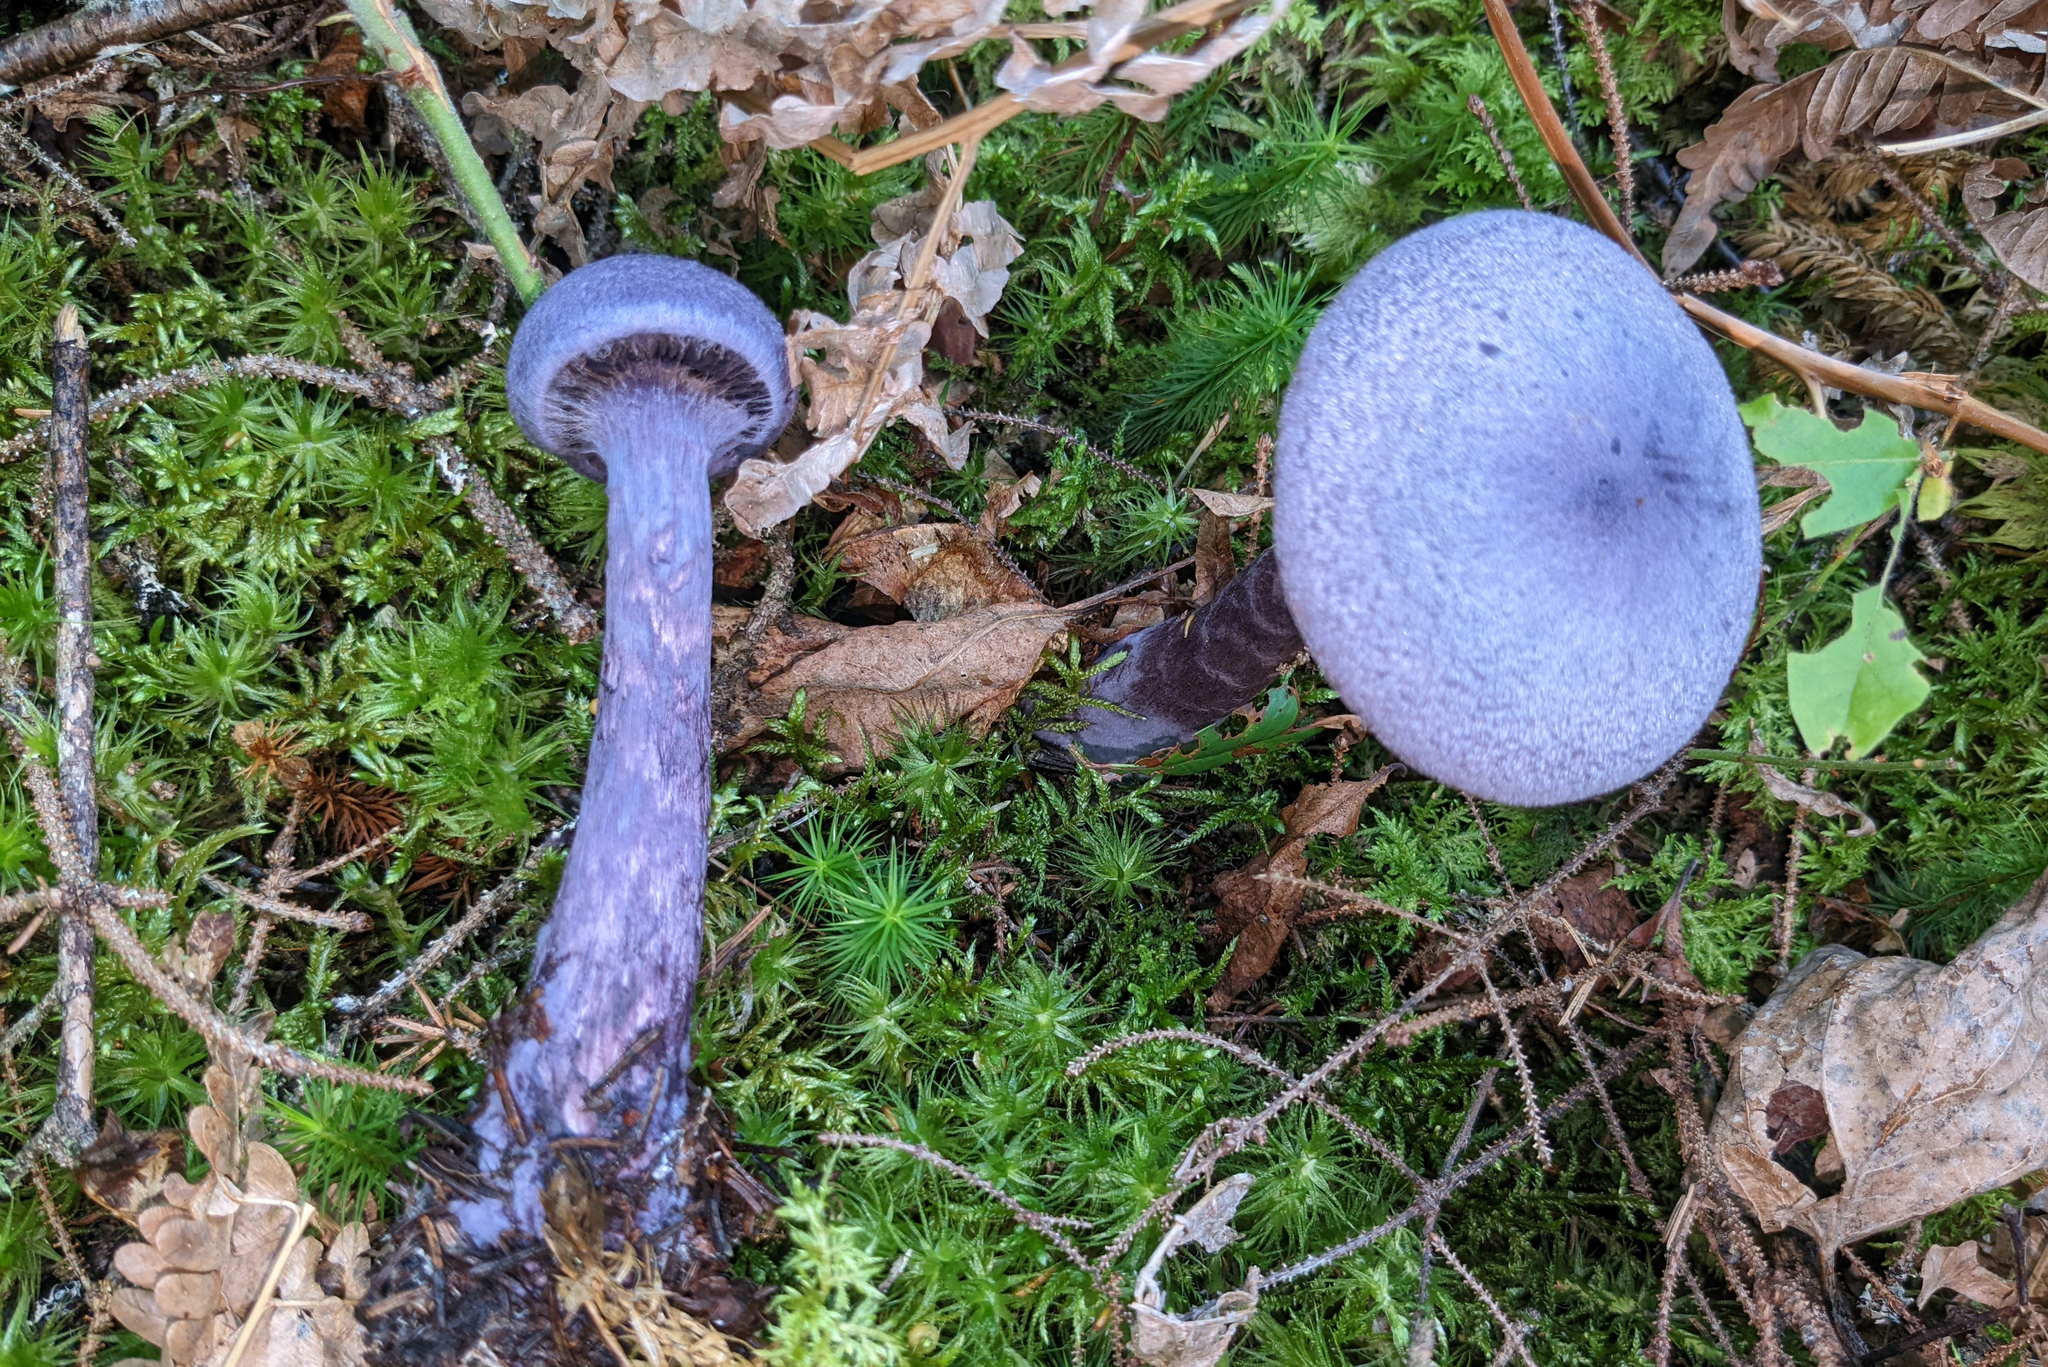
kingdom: Fungi
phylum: Basidiomycota
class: Agaricomycetes
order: Agaricales
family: Cortinariaceae
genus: Cortinarius
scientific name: Cortinarius violaceus
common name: Violet webcap
